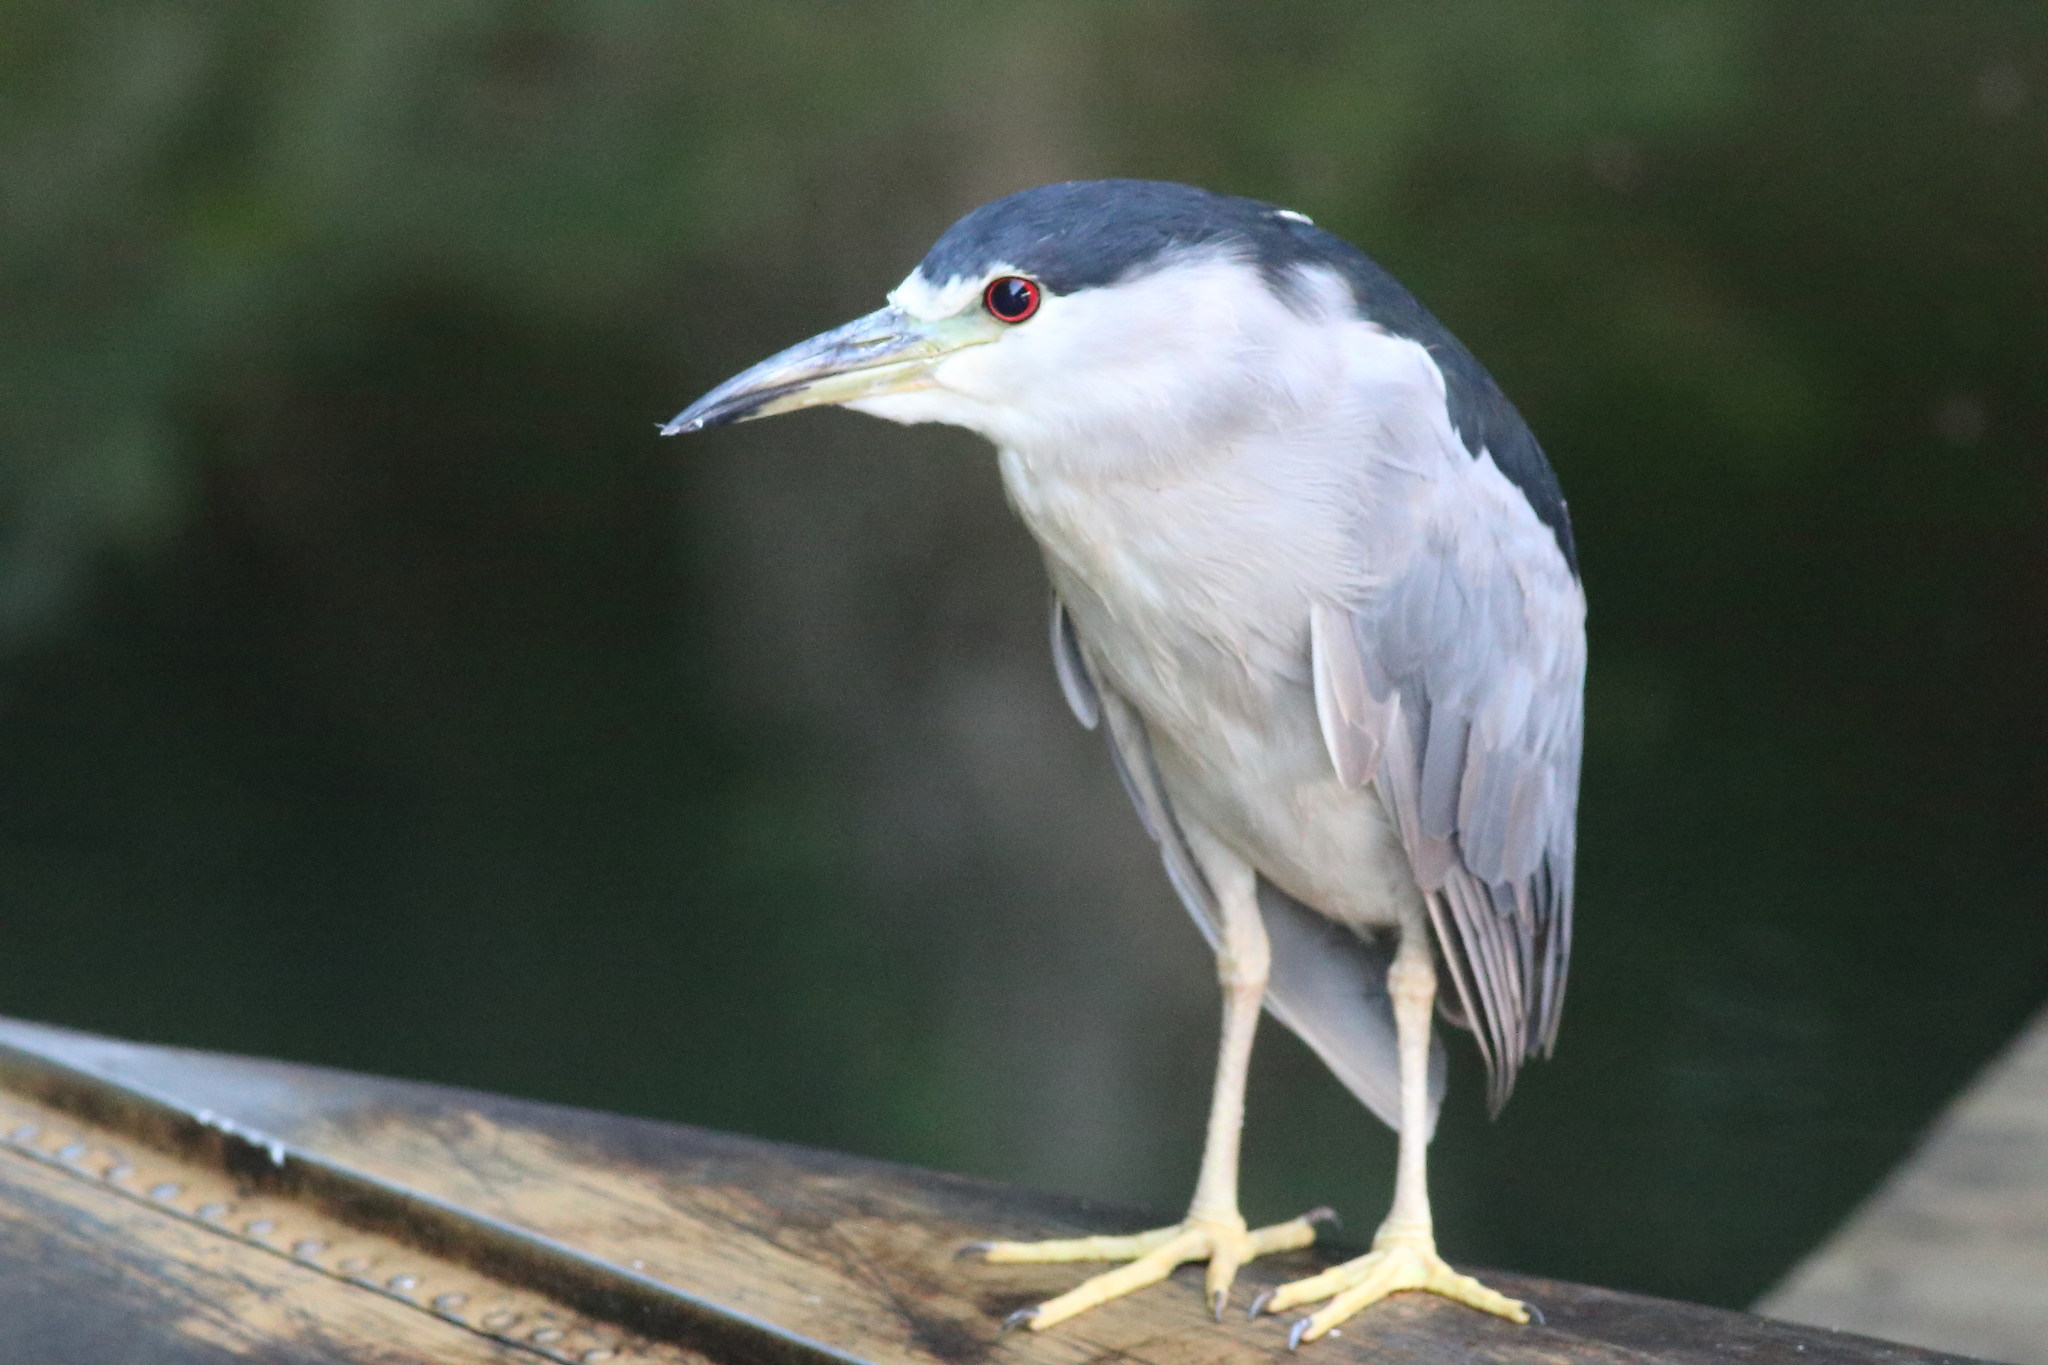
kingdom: Animalia
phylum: Chordata
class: Aves
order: Pelecaniformes
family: Ardeidae
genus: Nycticorax
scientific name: Nycticorax nycticorax
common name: Black-crowned night heron
